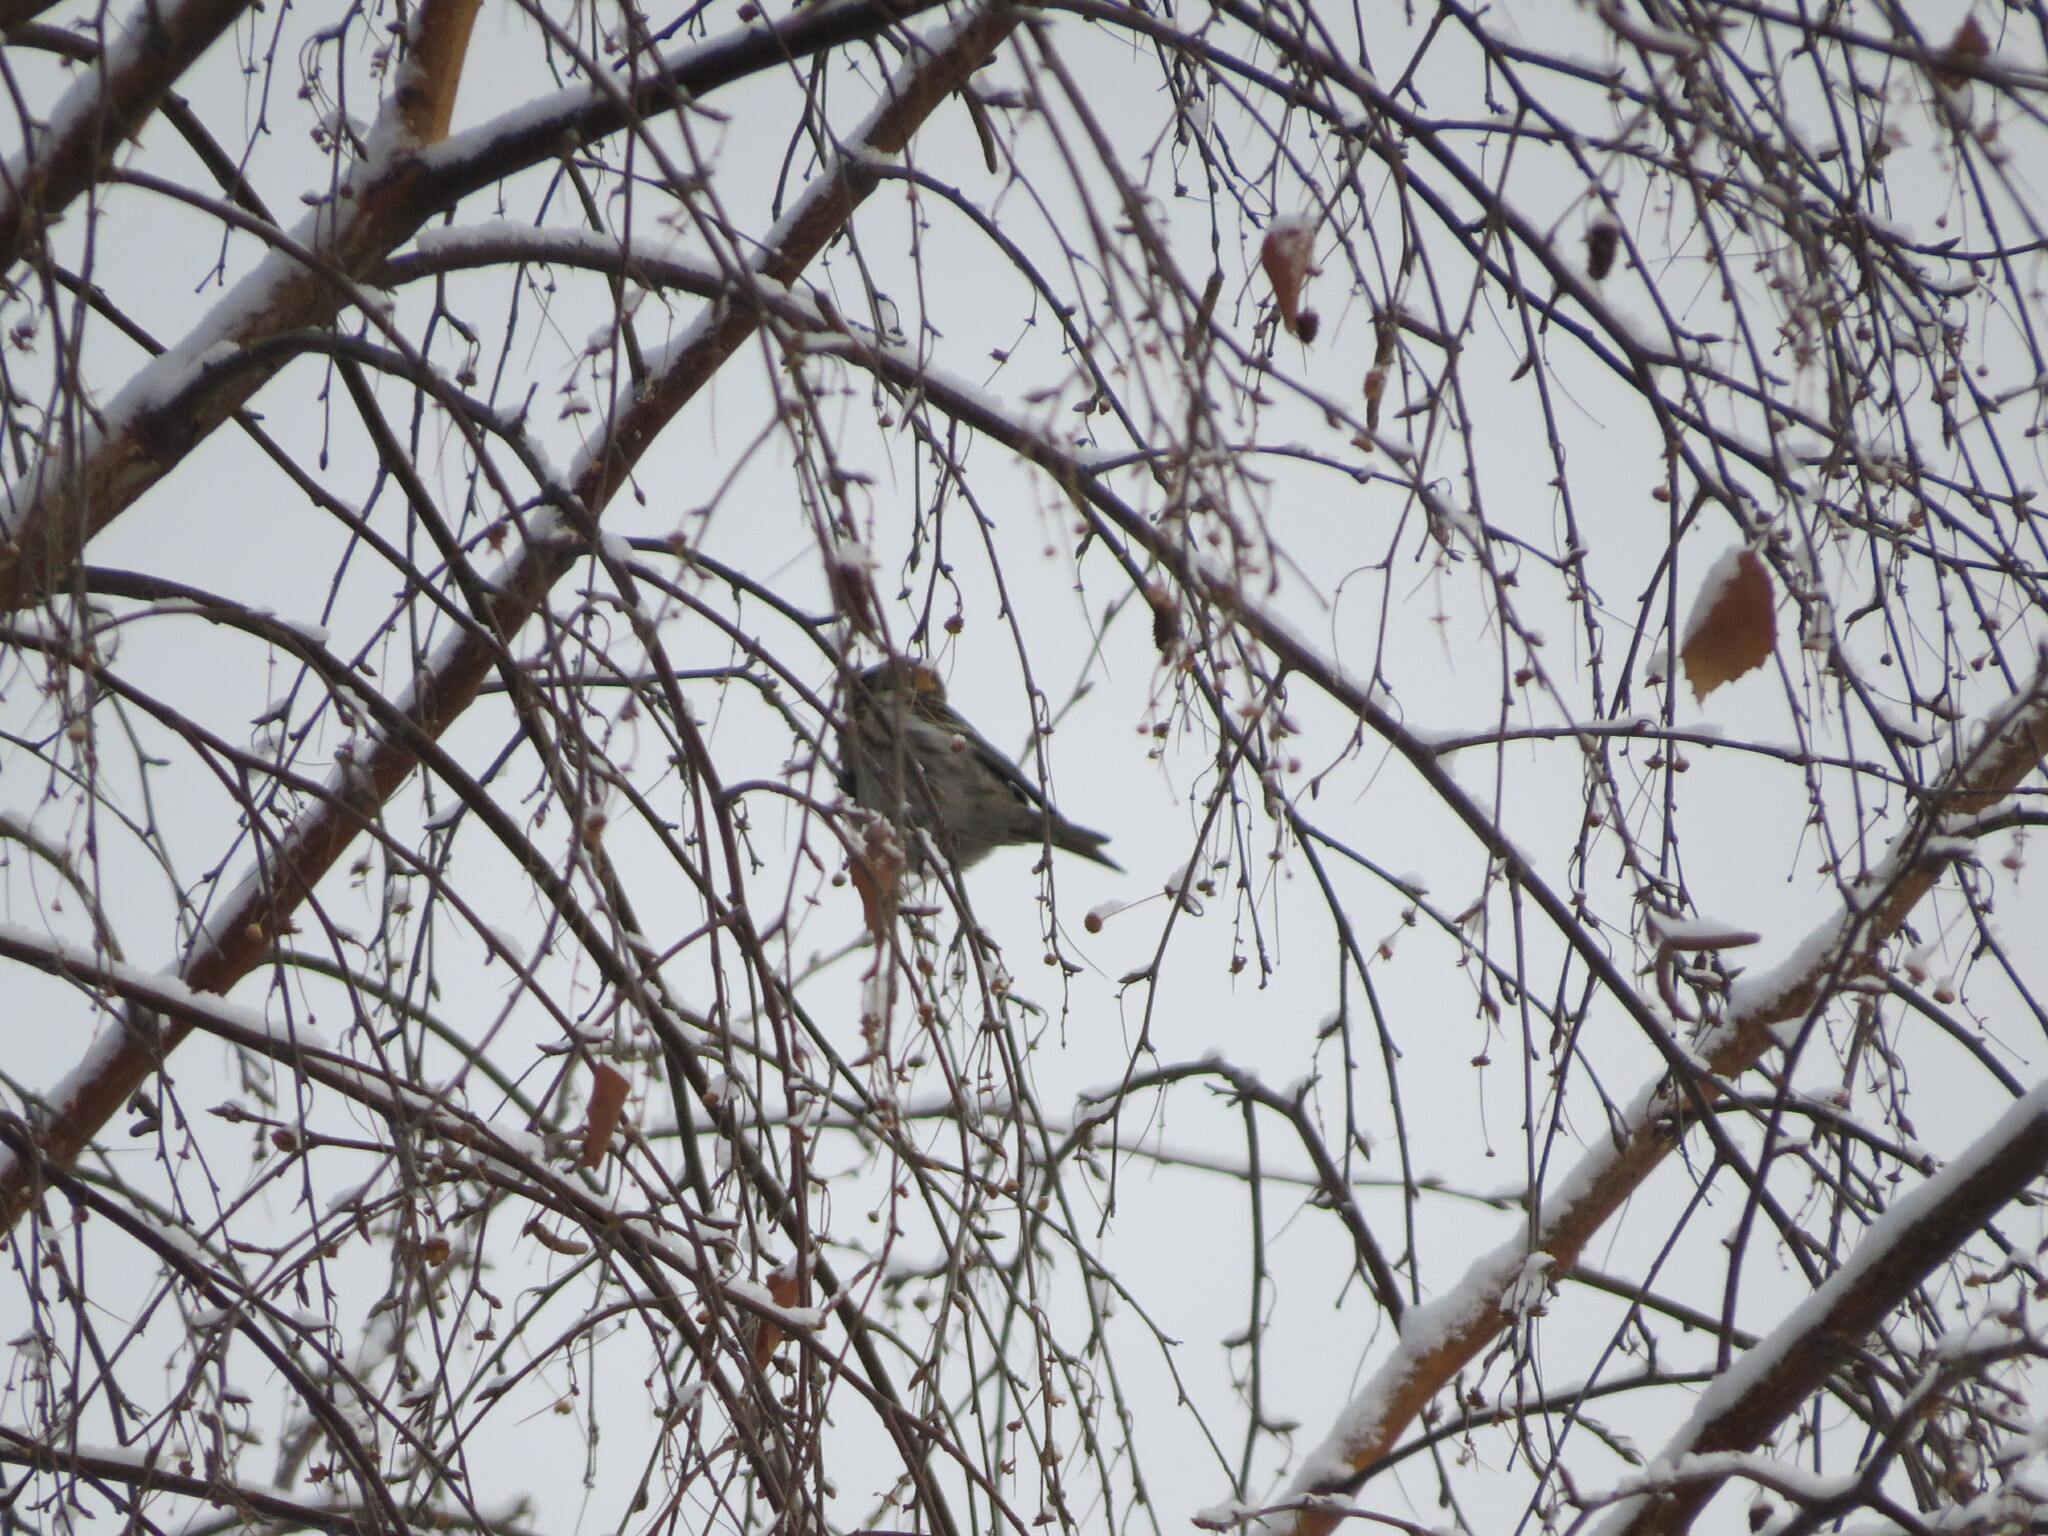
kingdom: Animalia
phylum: Chordata
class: Aves
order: Passeriformes
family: Fringillidae
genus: Acanthis
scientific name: Acanthis flammea
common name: Common redpoll
